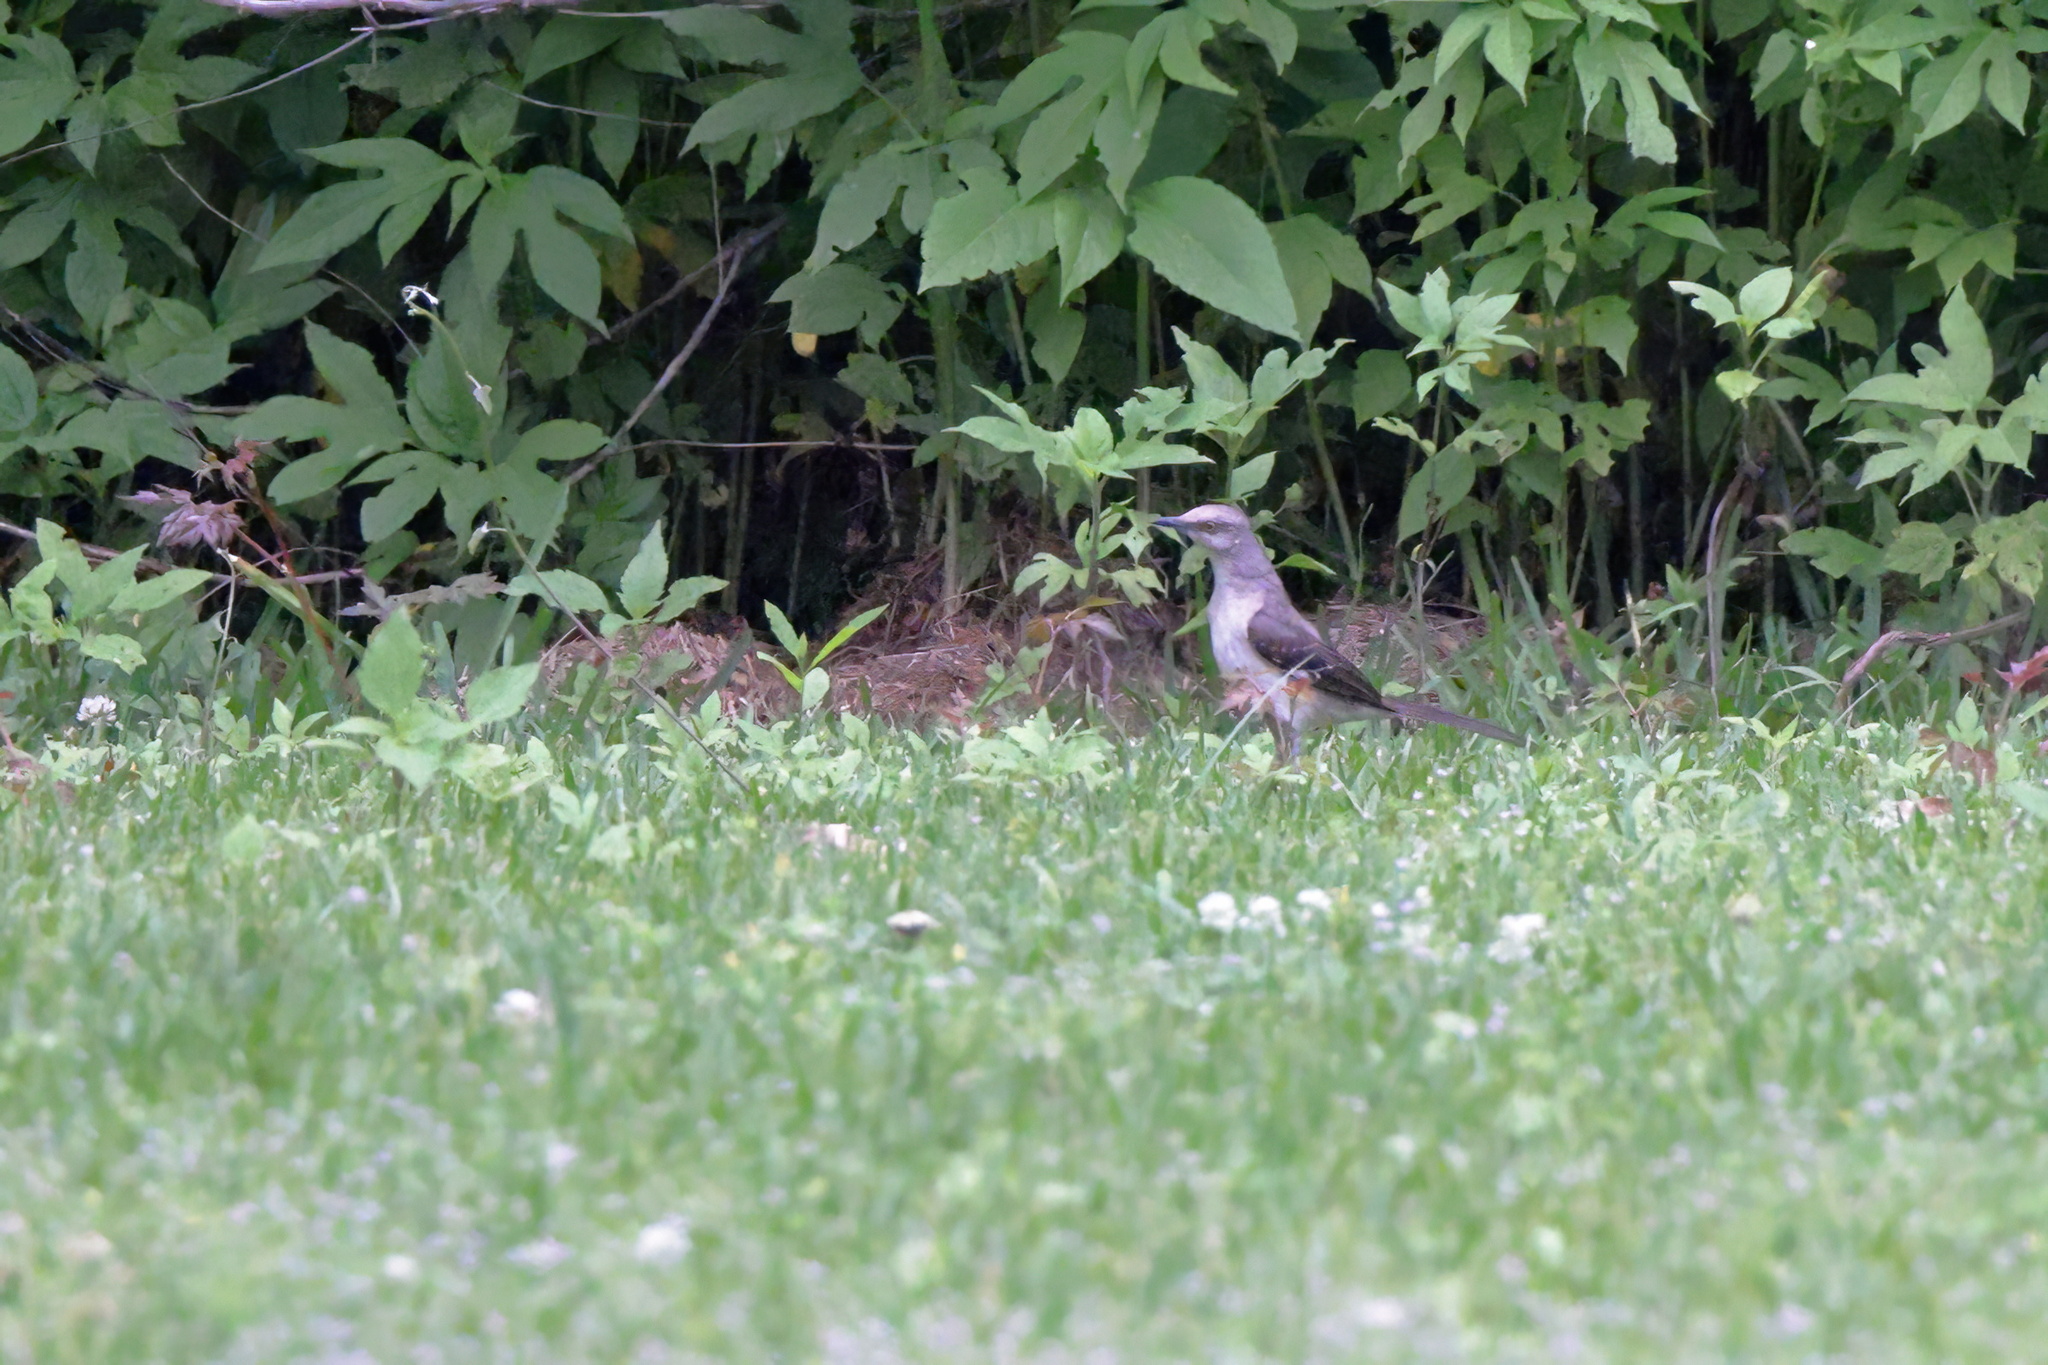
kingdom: Animalia
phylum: Chordata
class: Aves
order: Passeriformes
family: Mimidae
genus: Mimus
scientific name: Mimus polyglottos
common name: Northern mockingbird
